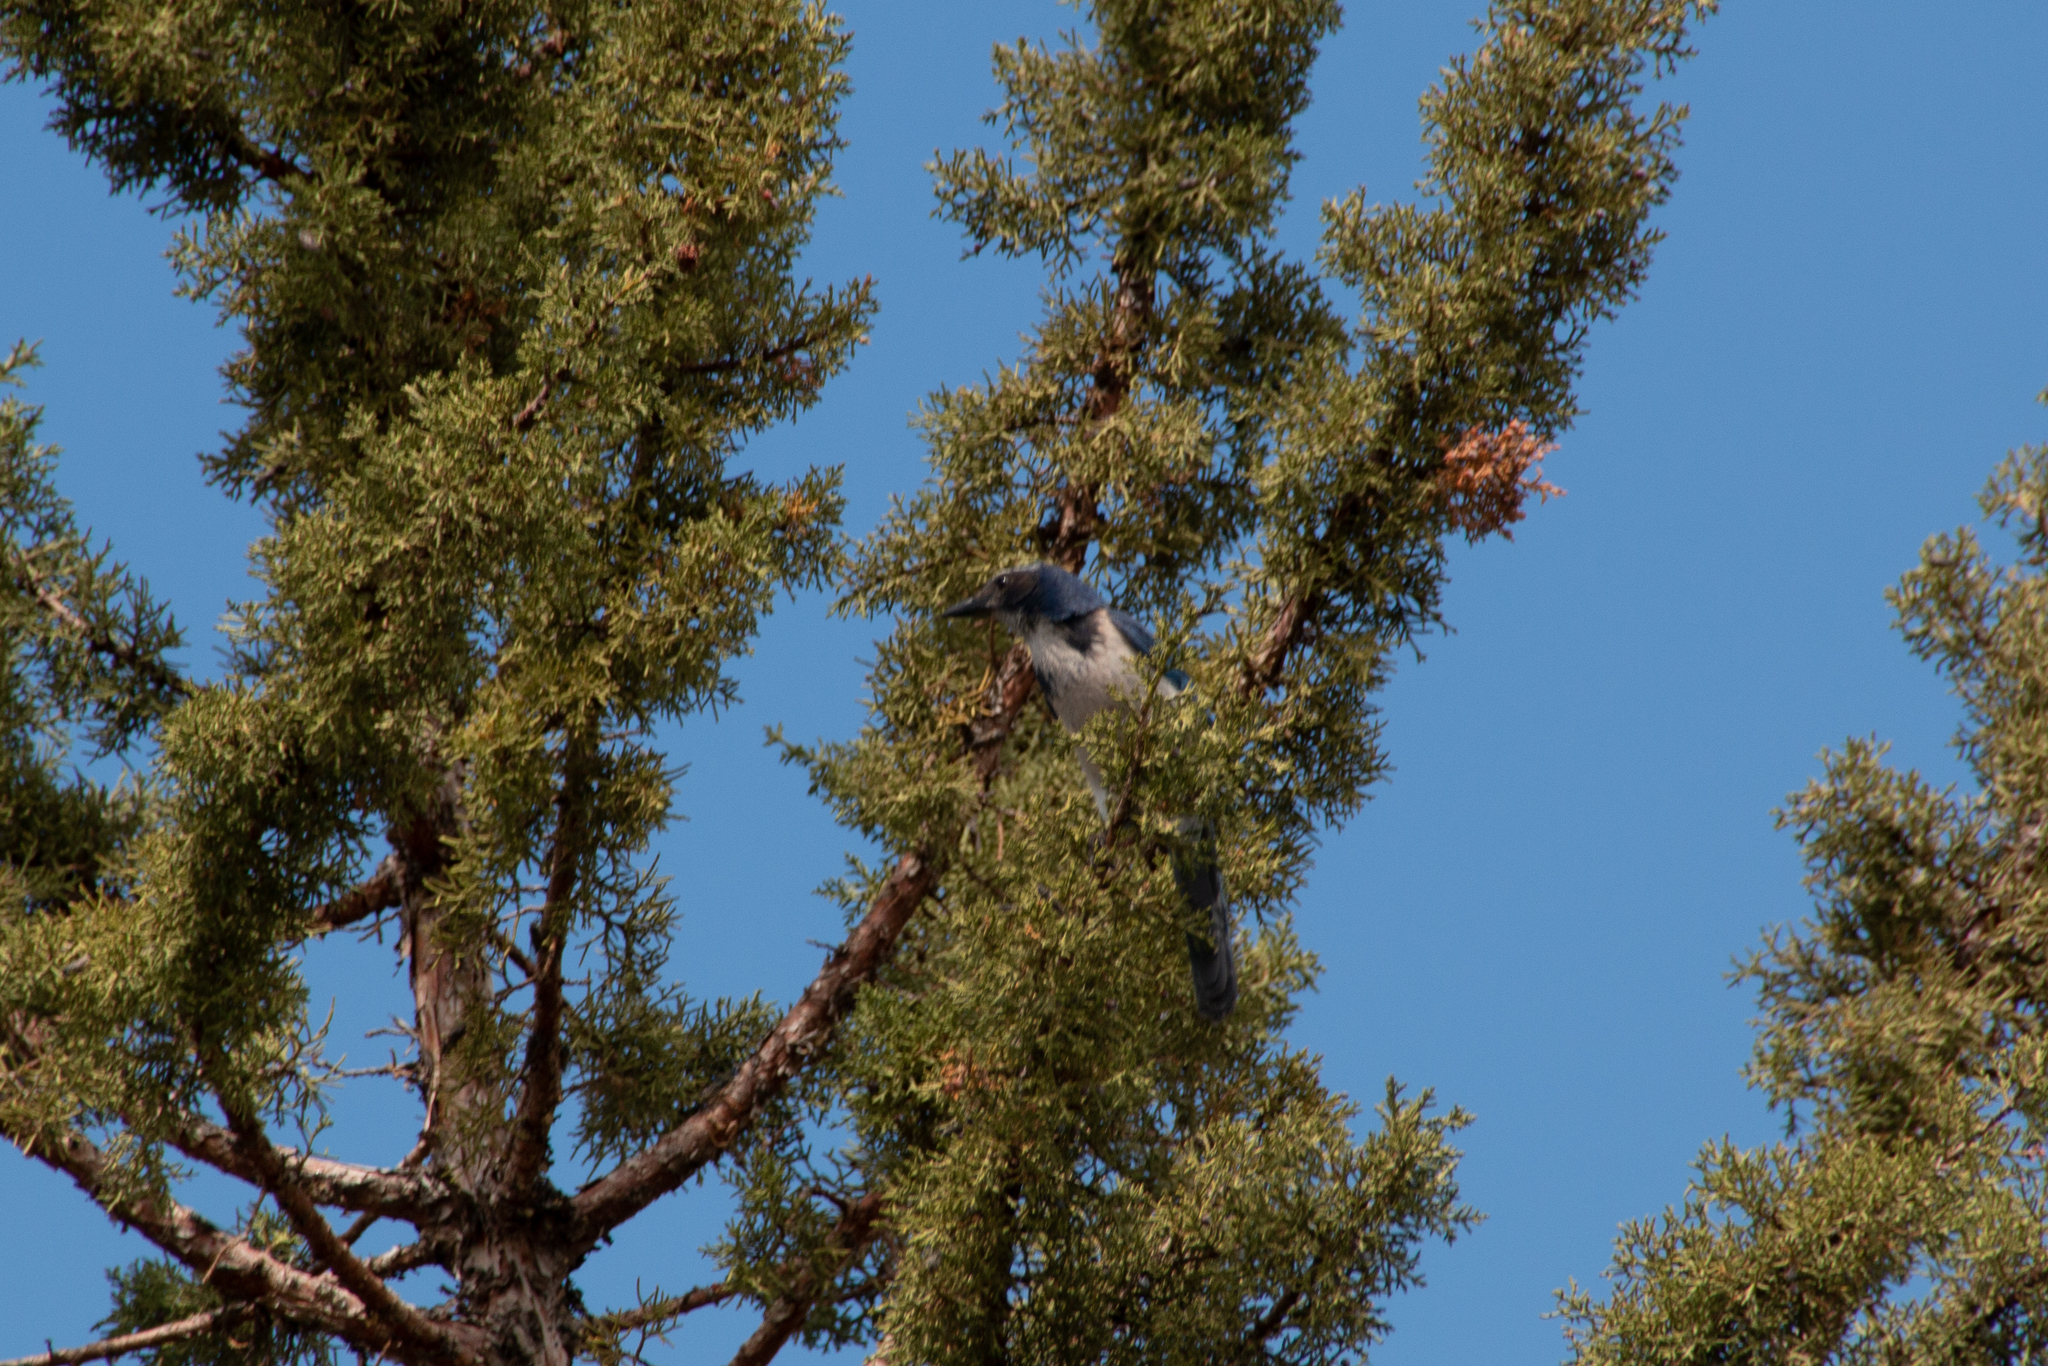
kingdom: Animalia
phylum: Chordata
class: Aves
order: Passeriformes
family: Corvidae
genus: Aphelocoma
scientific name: Aphelocoma californica
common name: California scrub-jay
